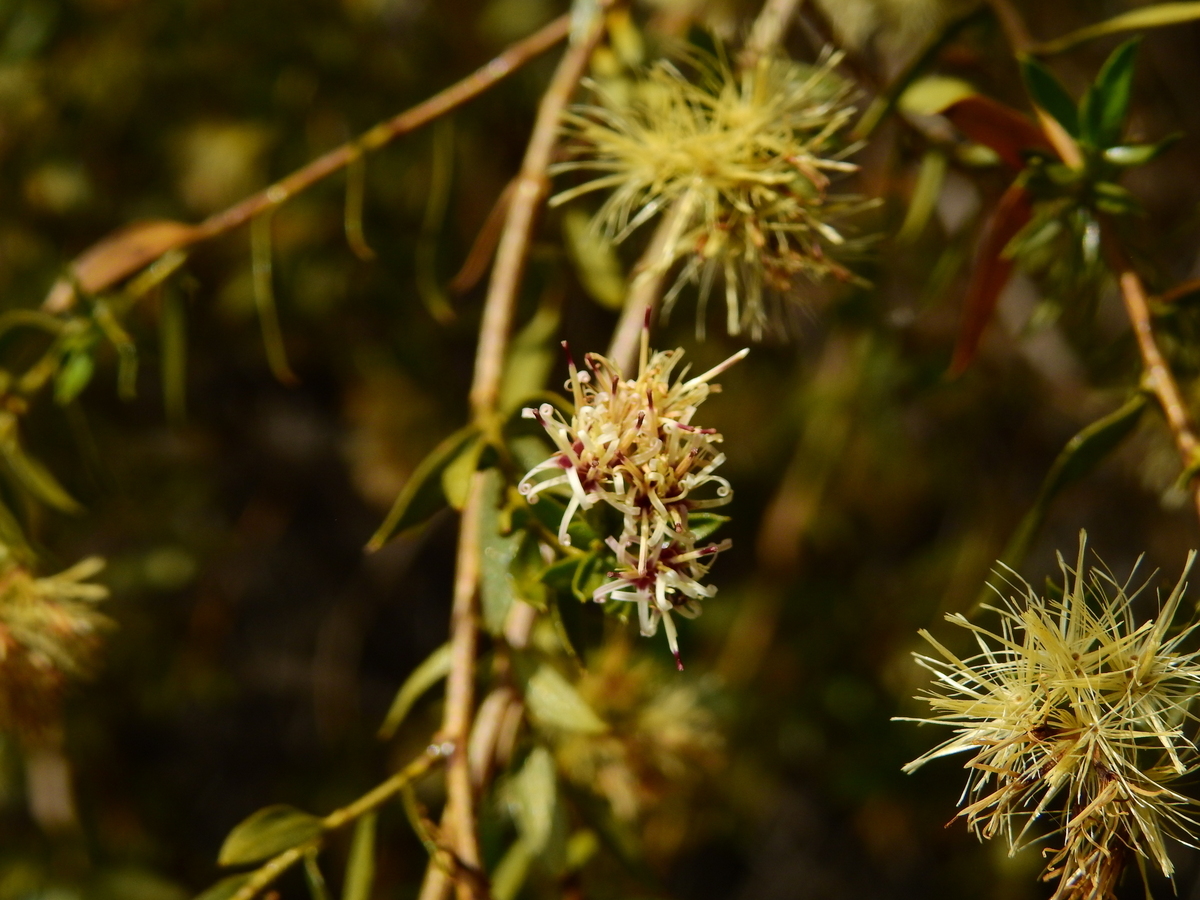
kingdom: Plantae
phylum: Tracheophyta
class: Magnoliopsida
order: Asterales
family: Asteraceae
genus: Gochnatia
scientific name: Gochnatia glutinosa
